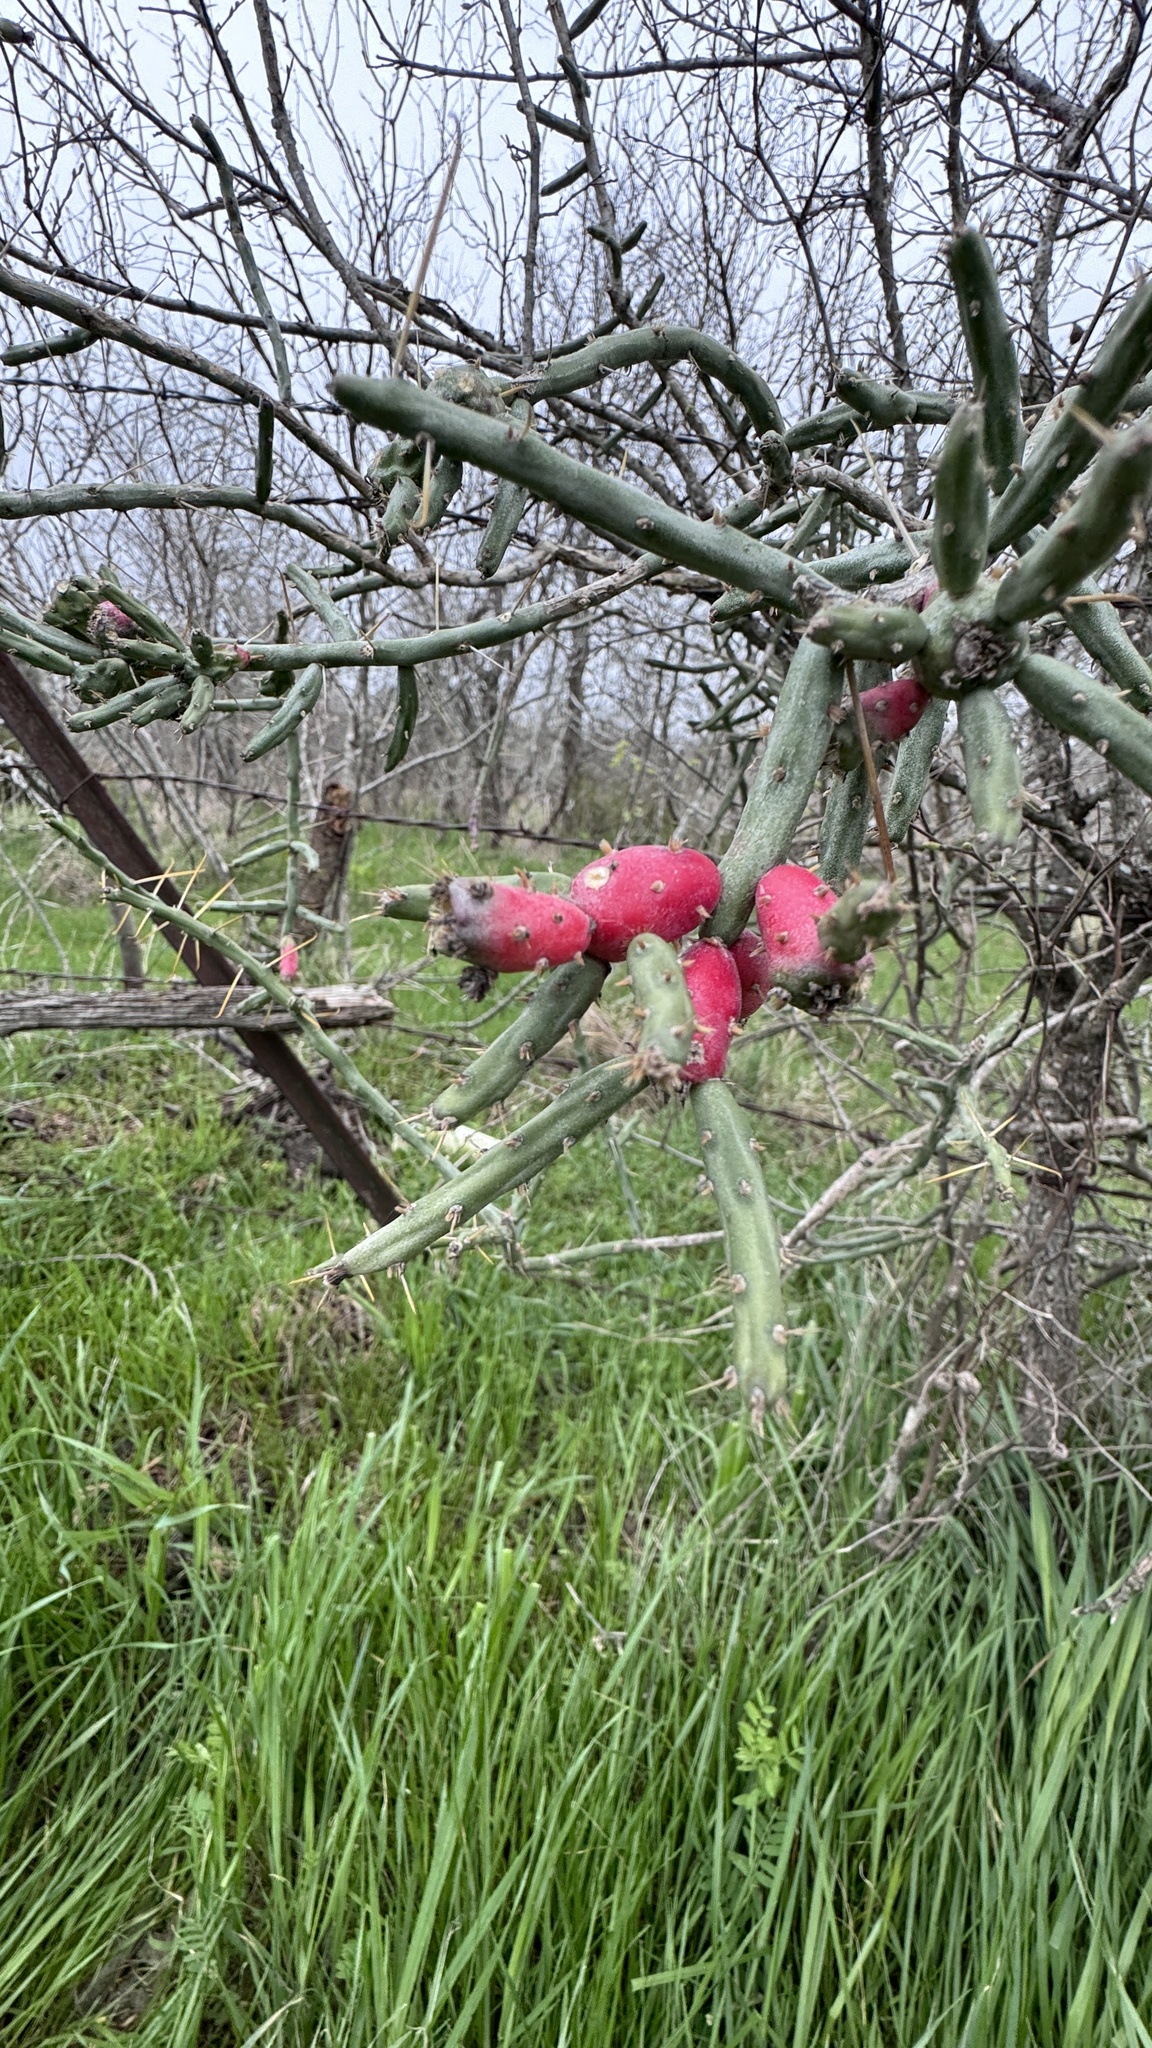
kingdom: Plantae
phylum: Tracheophyta
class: Magnoliopsida
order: Caryophyllales
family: Cactaceae
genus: Cylindropuntia
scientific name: Cylindropuntia leptocaulis
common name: Christmas cactus
